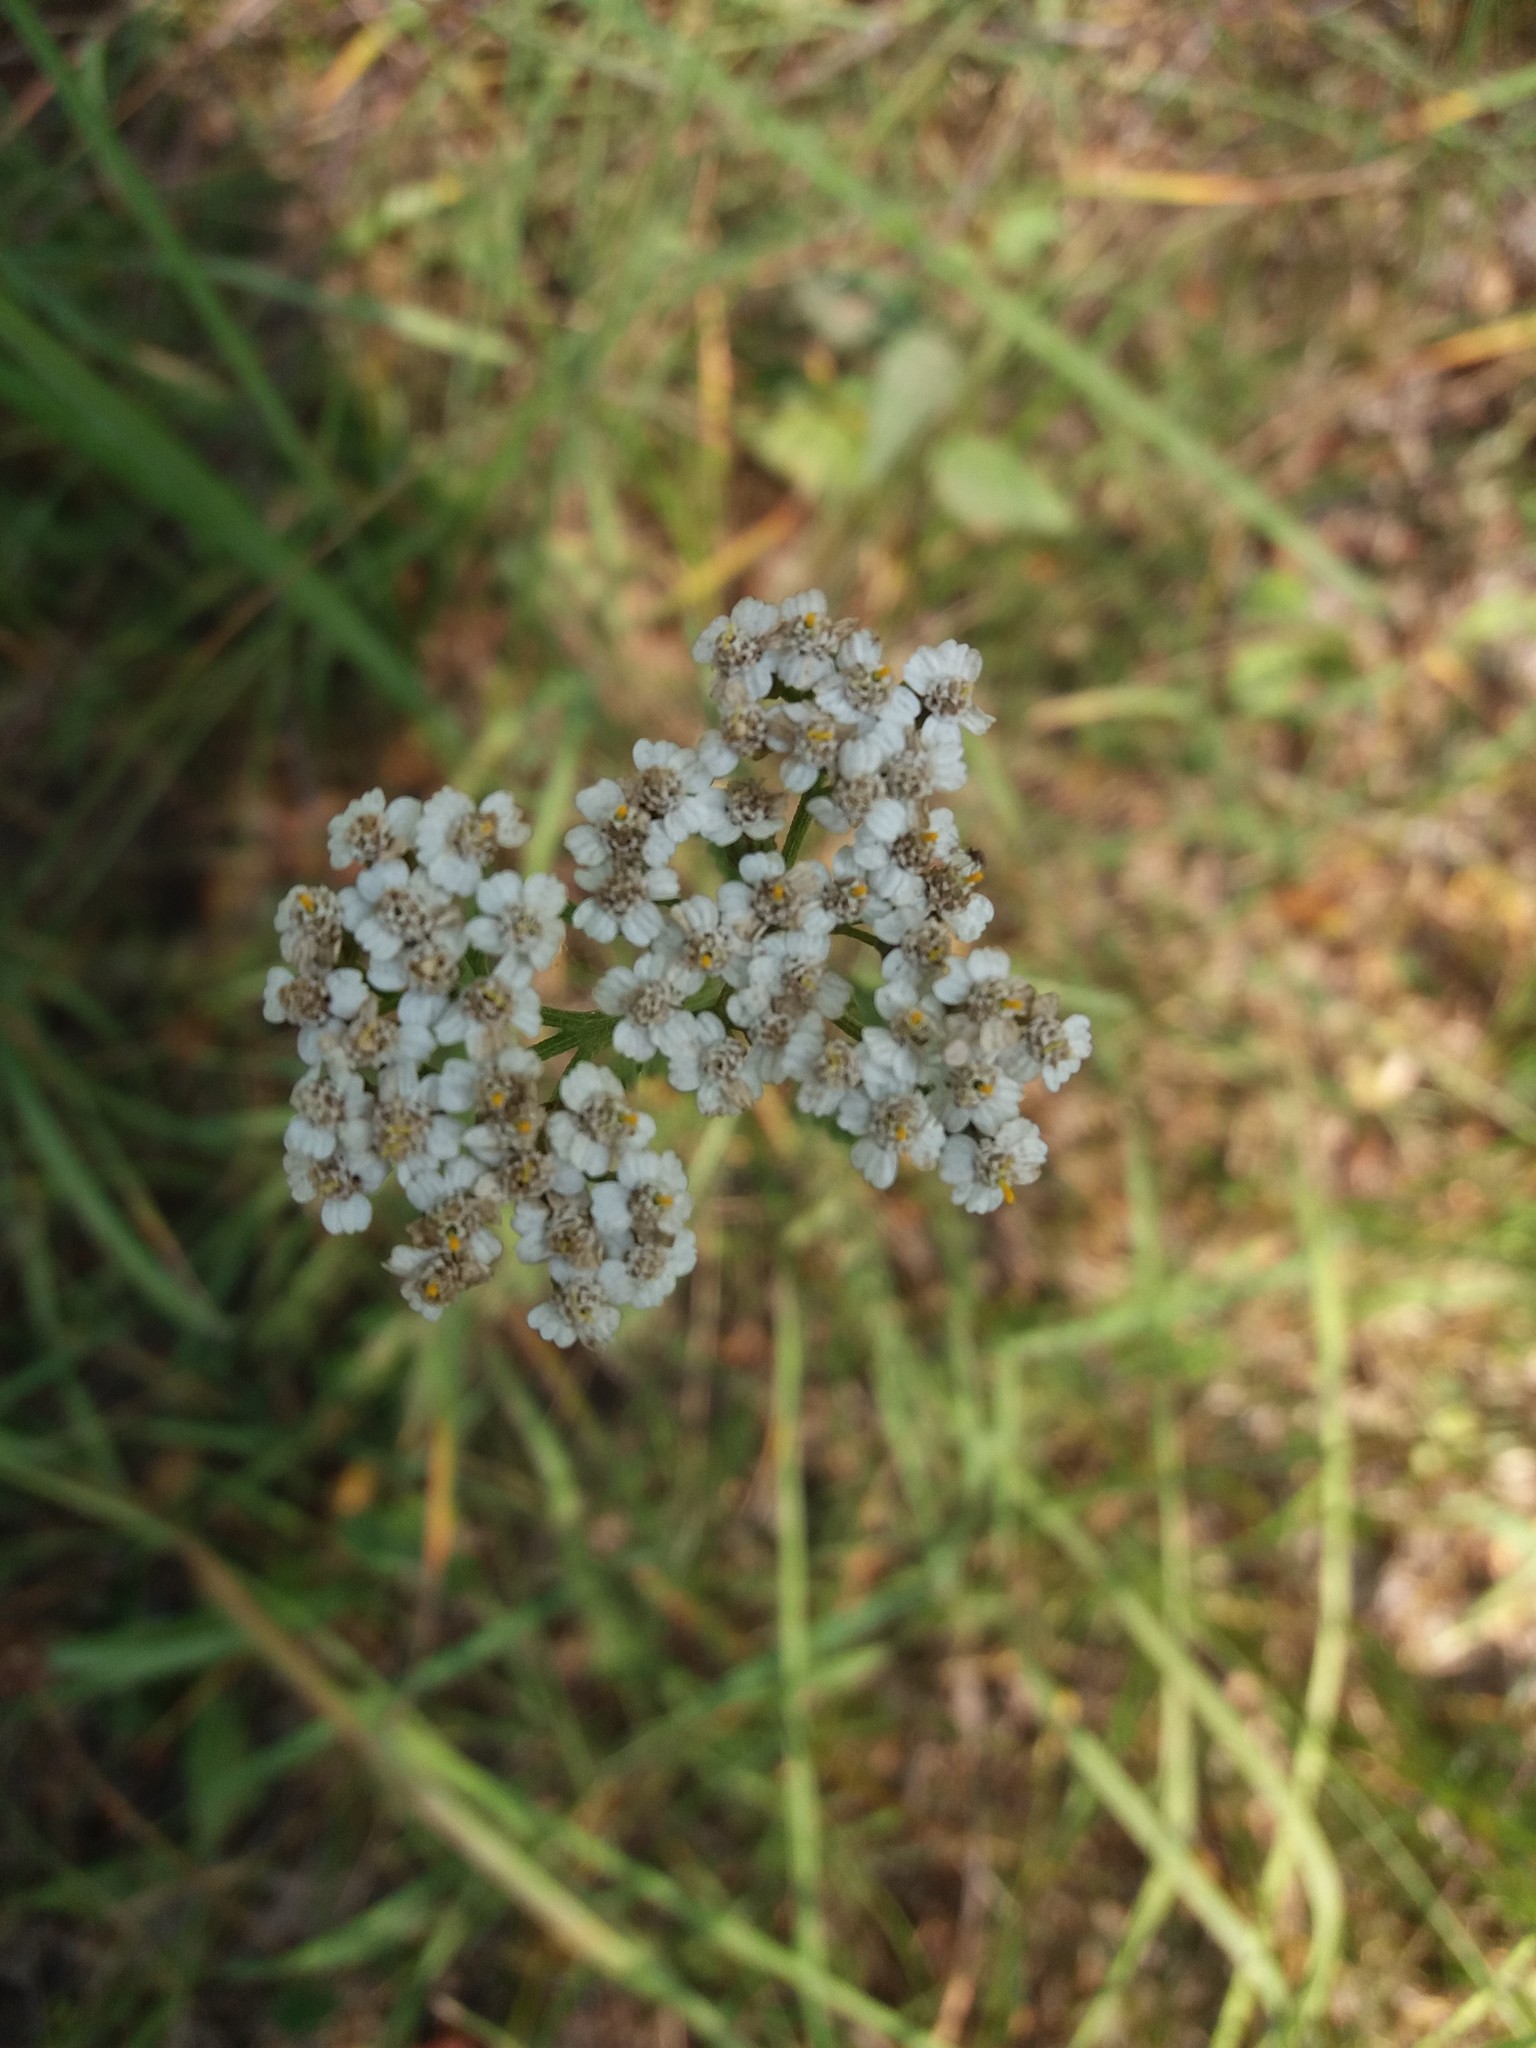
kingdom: Plantae
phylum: Tracheophyta
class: Magnoliopsida
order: Asterales
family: Asteraceae
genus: Achillea
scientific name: Achillea millefolium
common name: Yarrow
